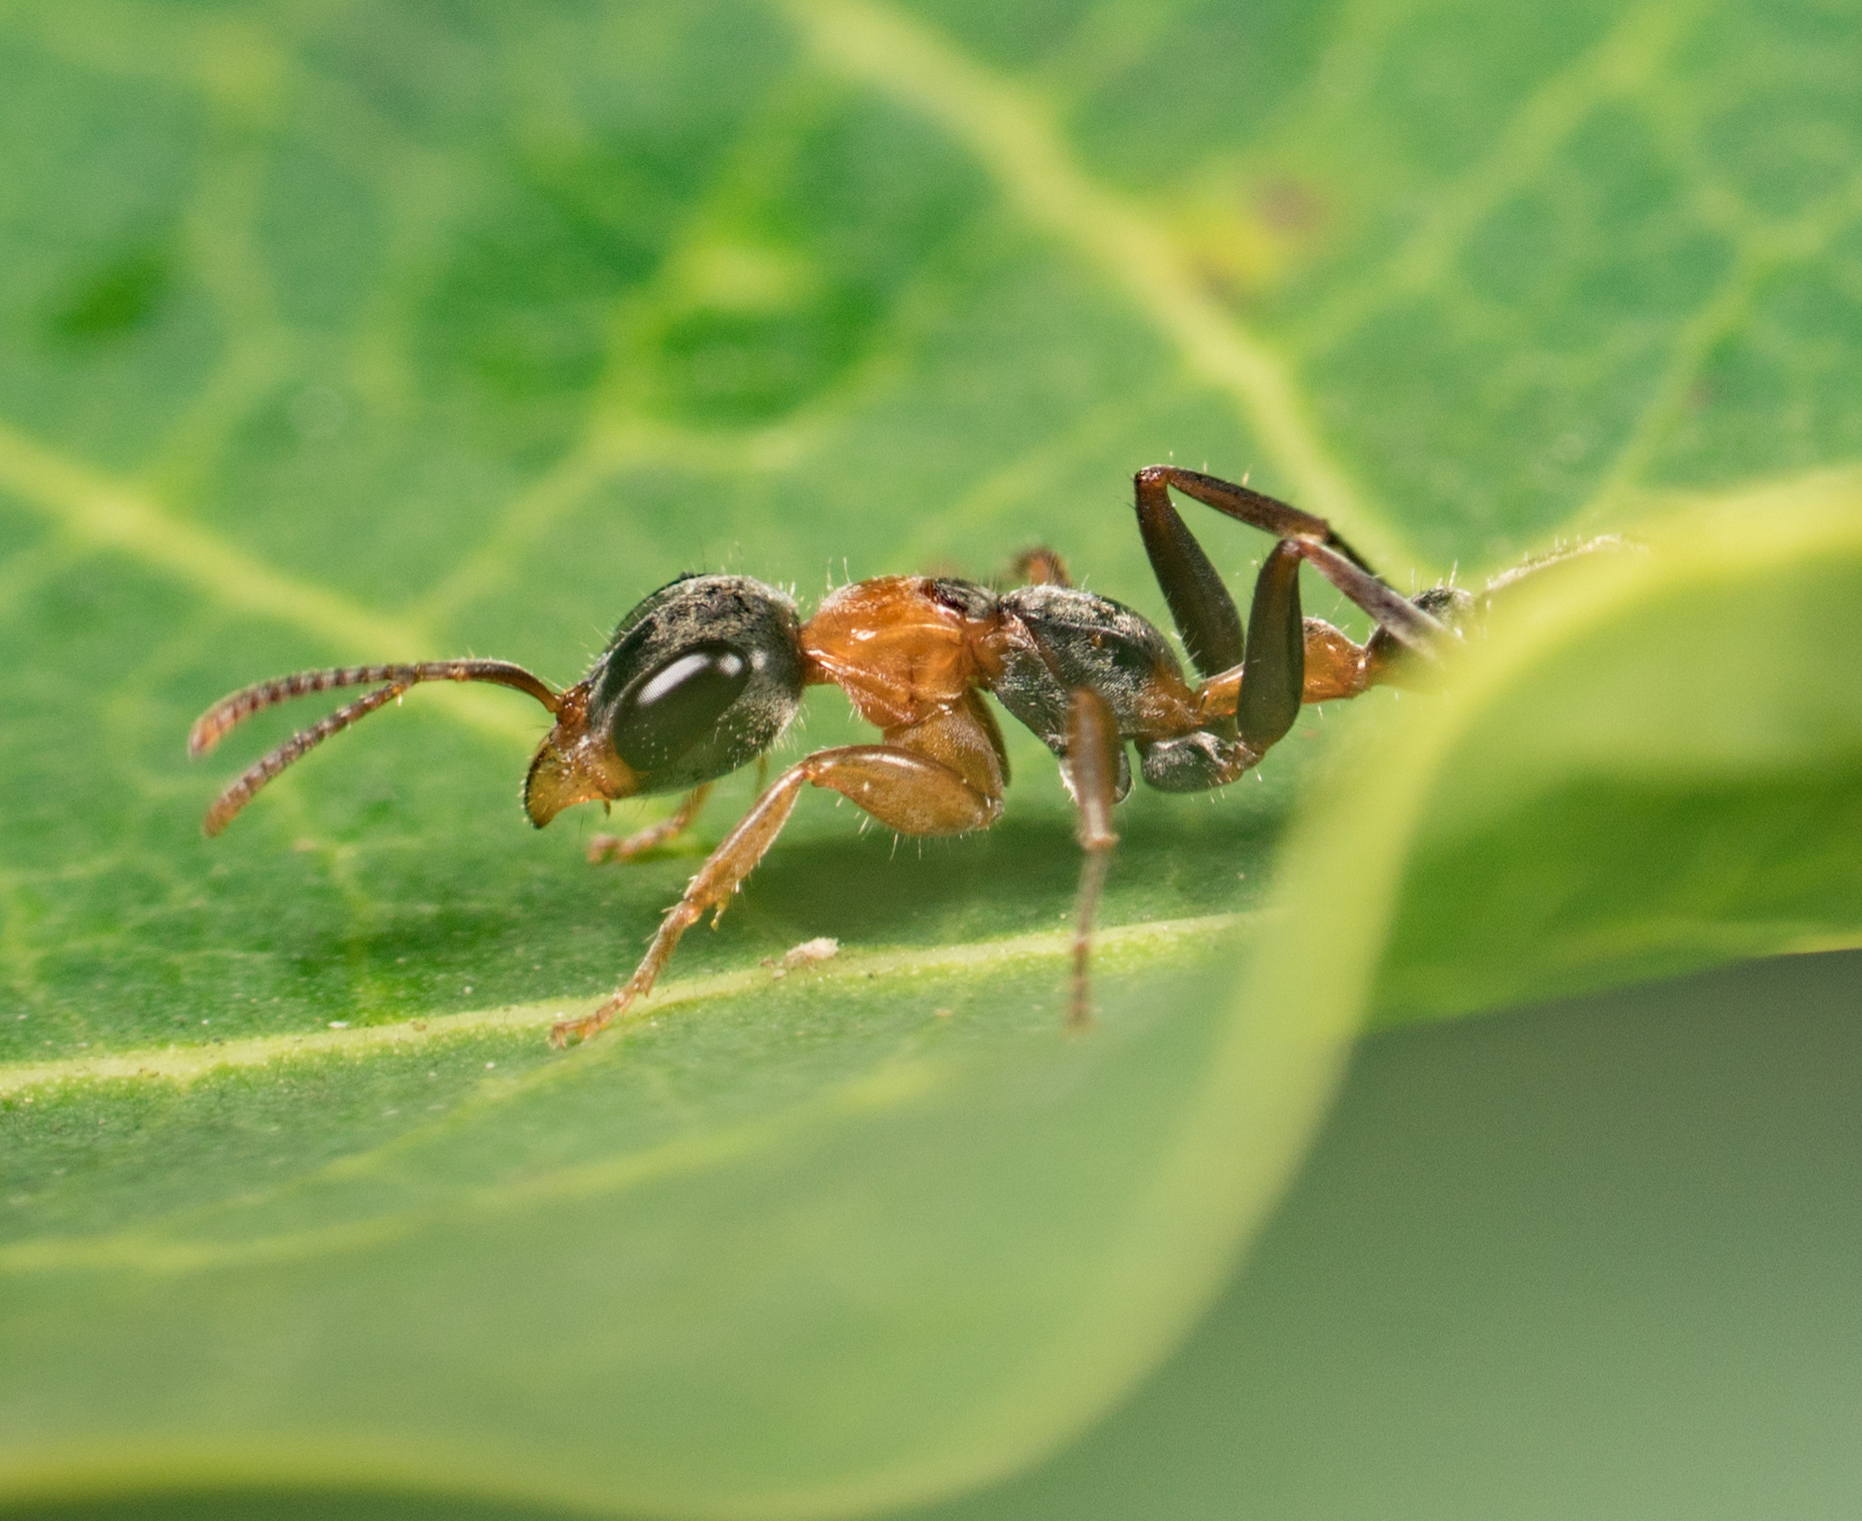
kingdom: Animalia
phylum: Arthropoda
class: Insecta
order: Hymenoptera
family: Formicidae
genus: Pseudomyrmex
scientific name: Pseudomyrmex gracilis
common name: Graceful twig ant
